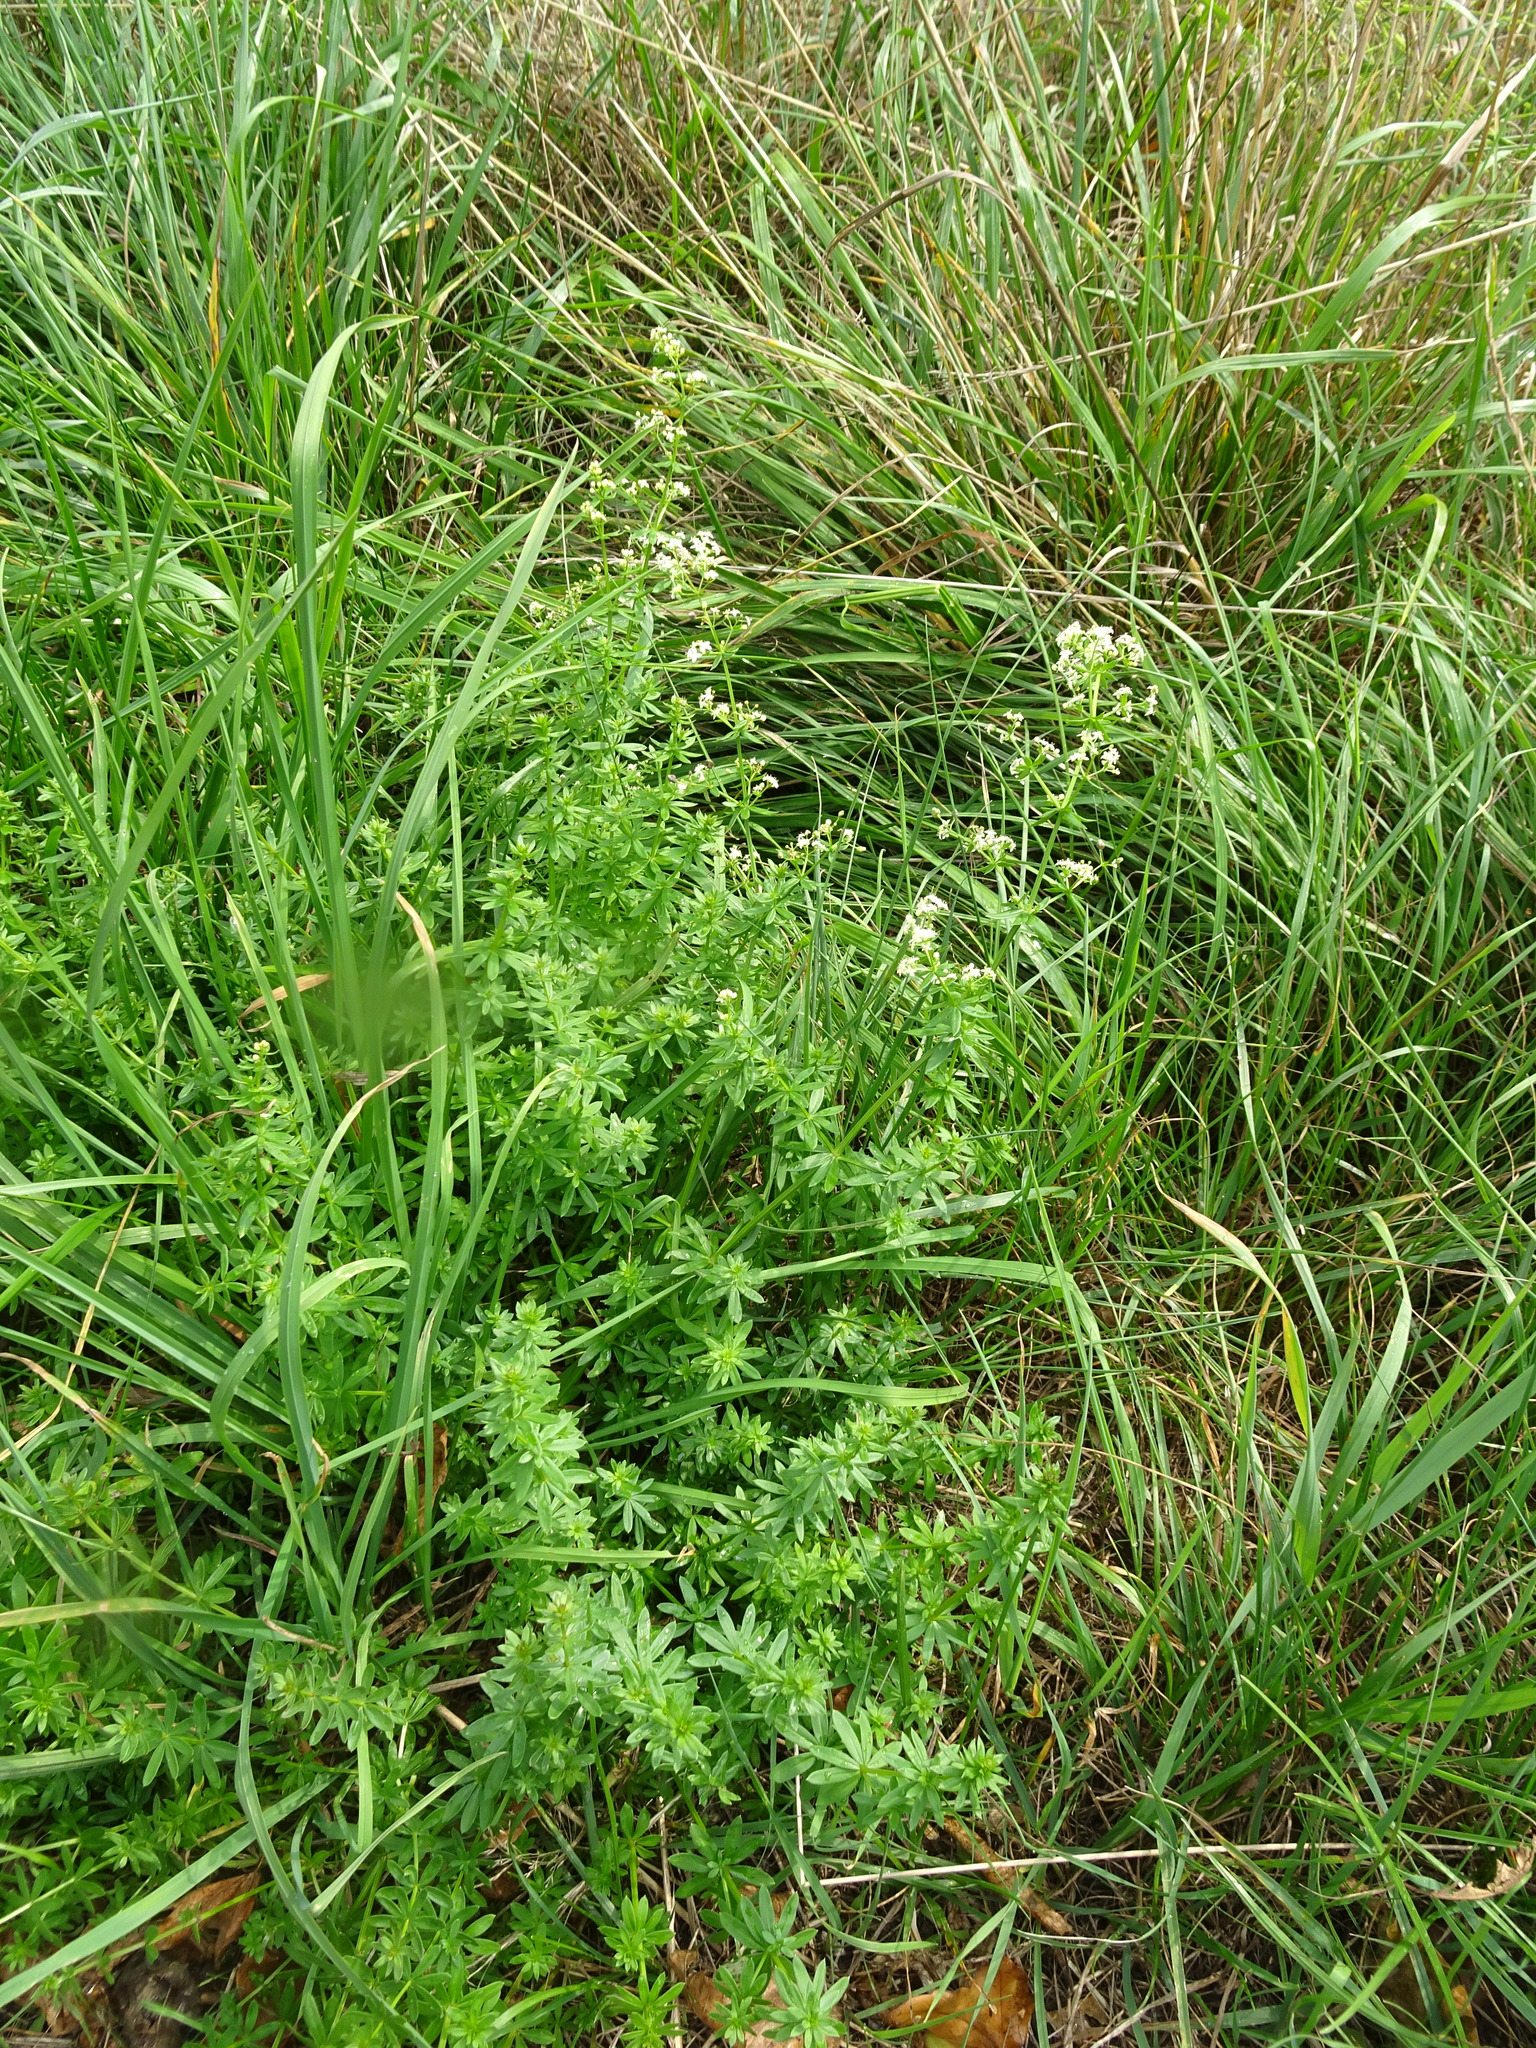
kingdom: Plantae
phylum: Tracheophyta
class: Magnoliopsida
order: Gentianales
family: Rubiaceae
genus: Galium
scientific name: Galium mollugo
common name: Hedge bedstraw
